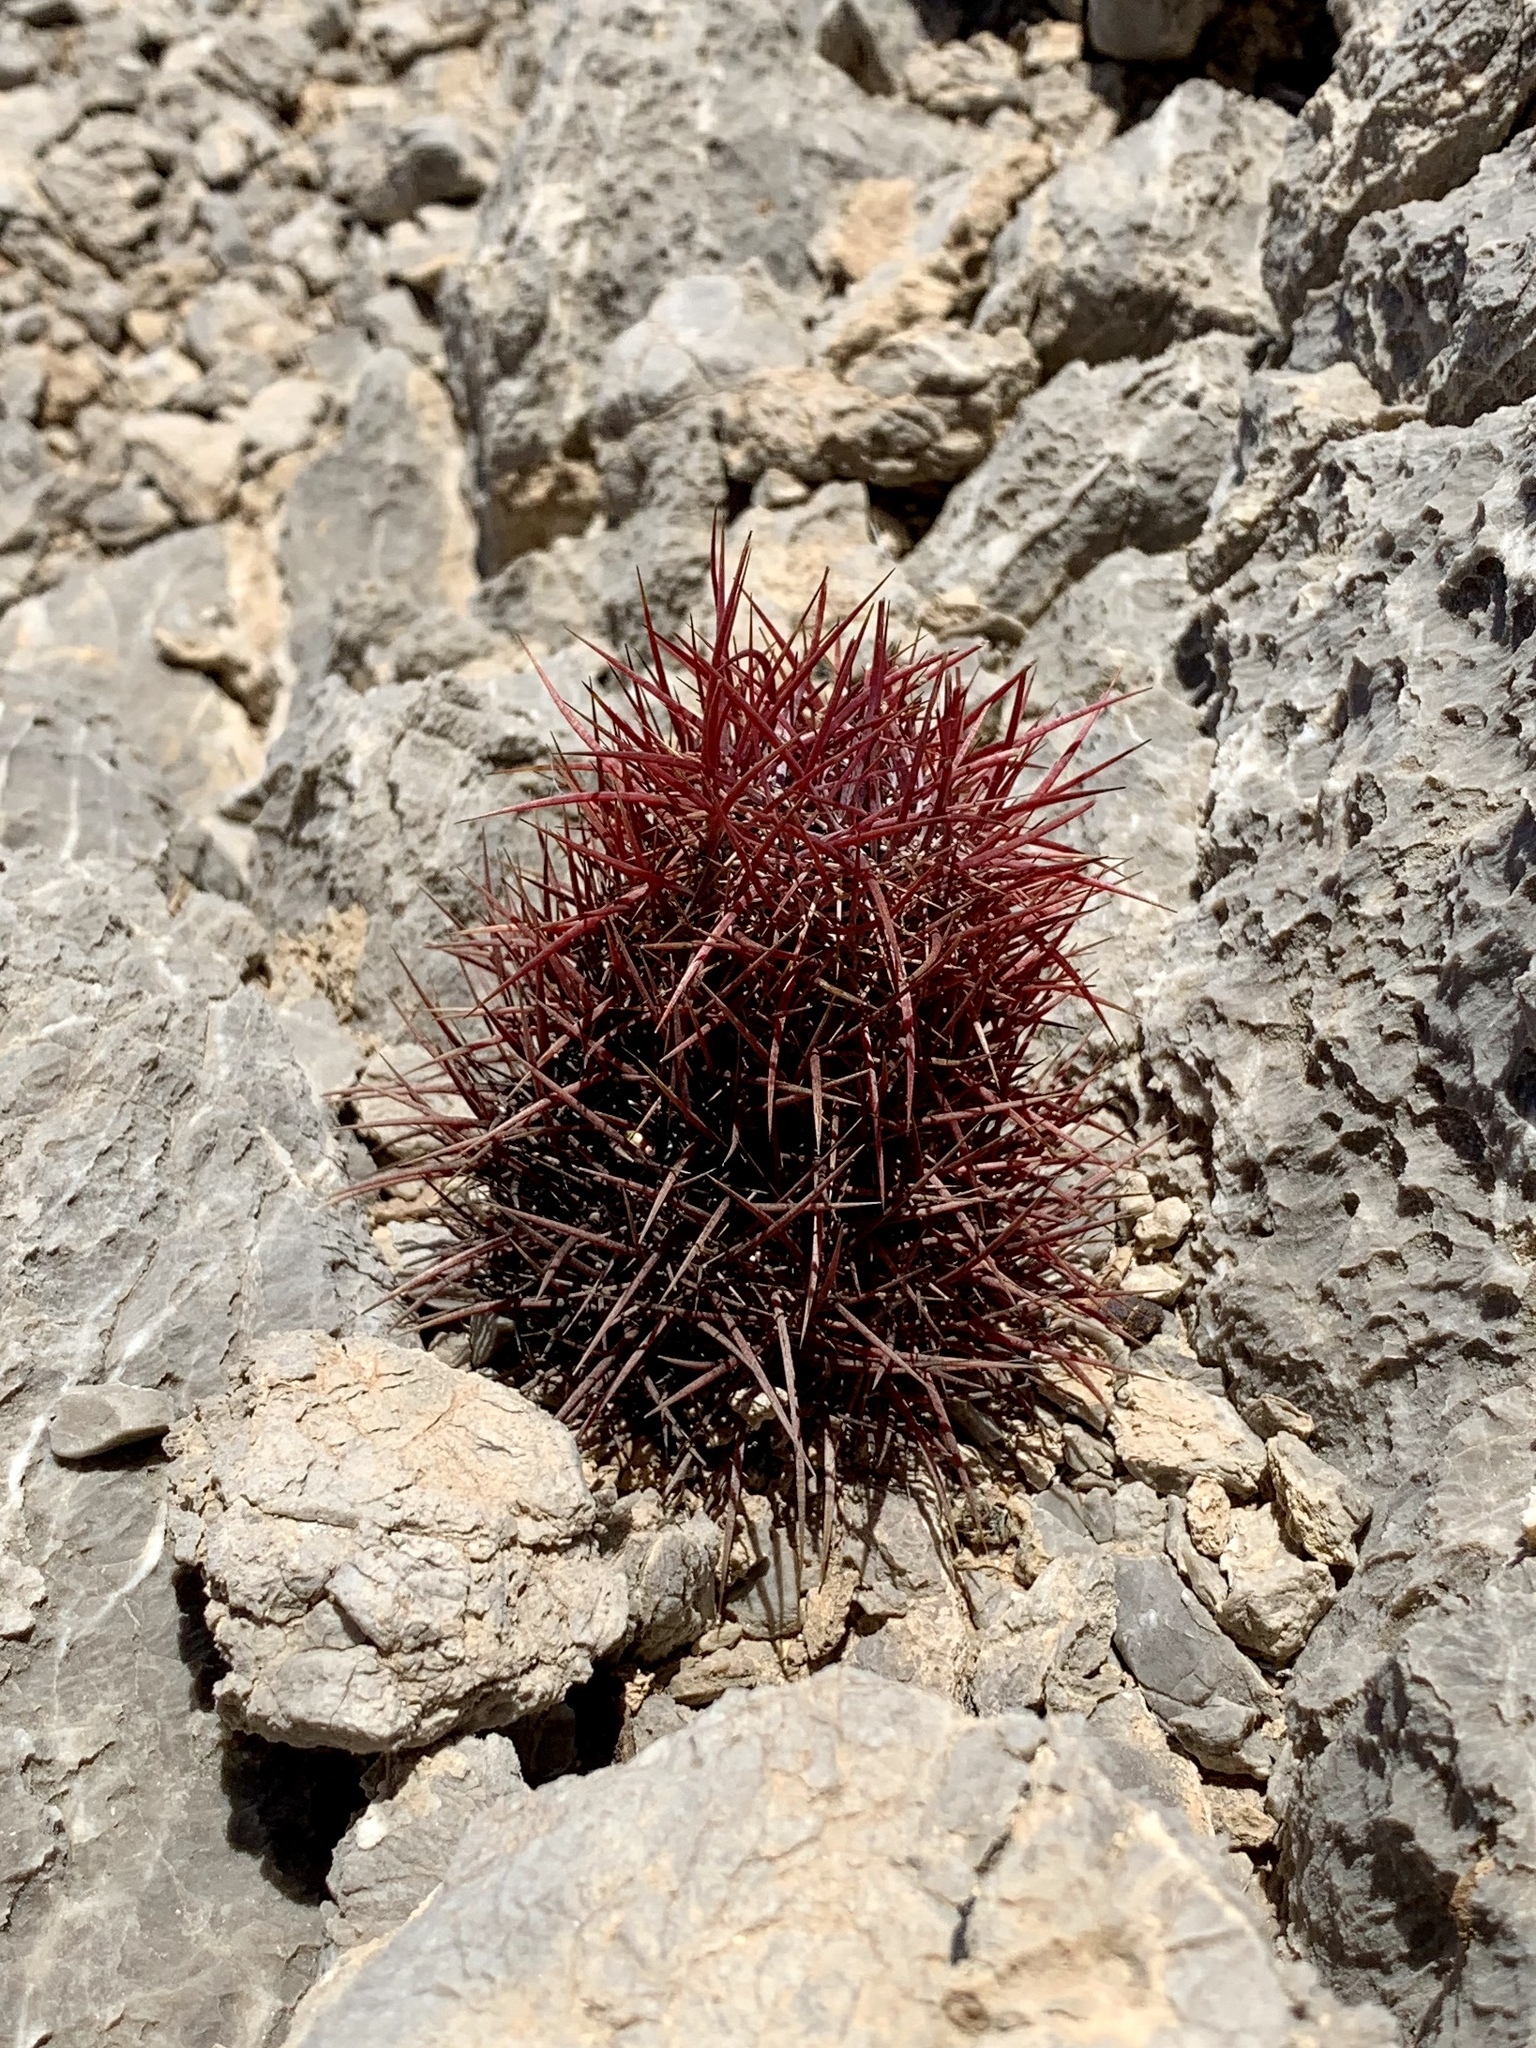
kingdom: Plantae
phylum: Tracheophyta
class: Magnoliopsida
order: Caryophyllales
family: Cactaceae
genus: Sclerocactus
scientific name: Sclerocactus johnsonii
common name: Eight-spine fishhook cactus
